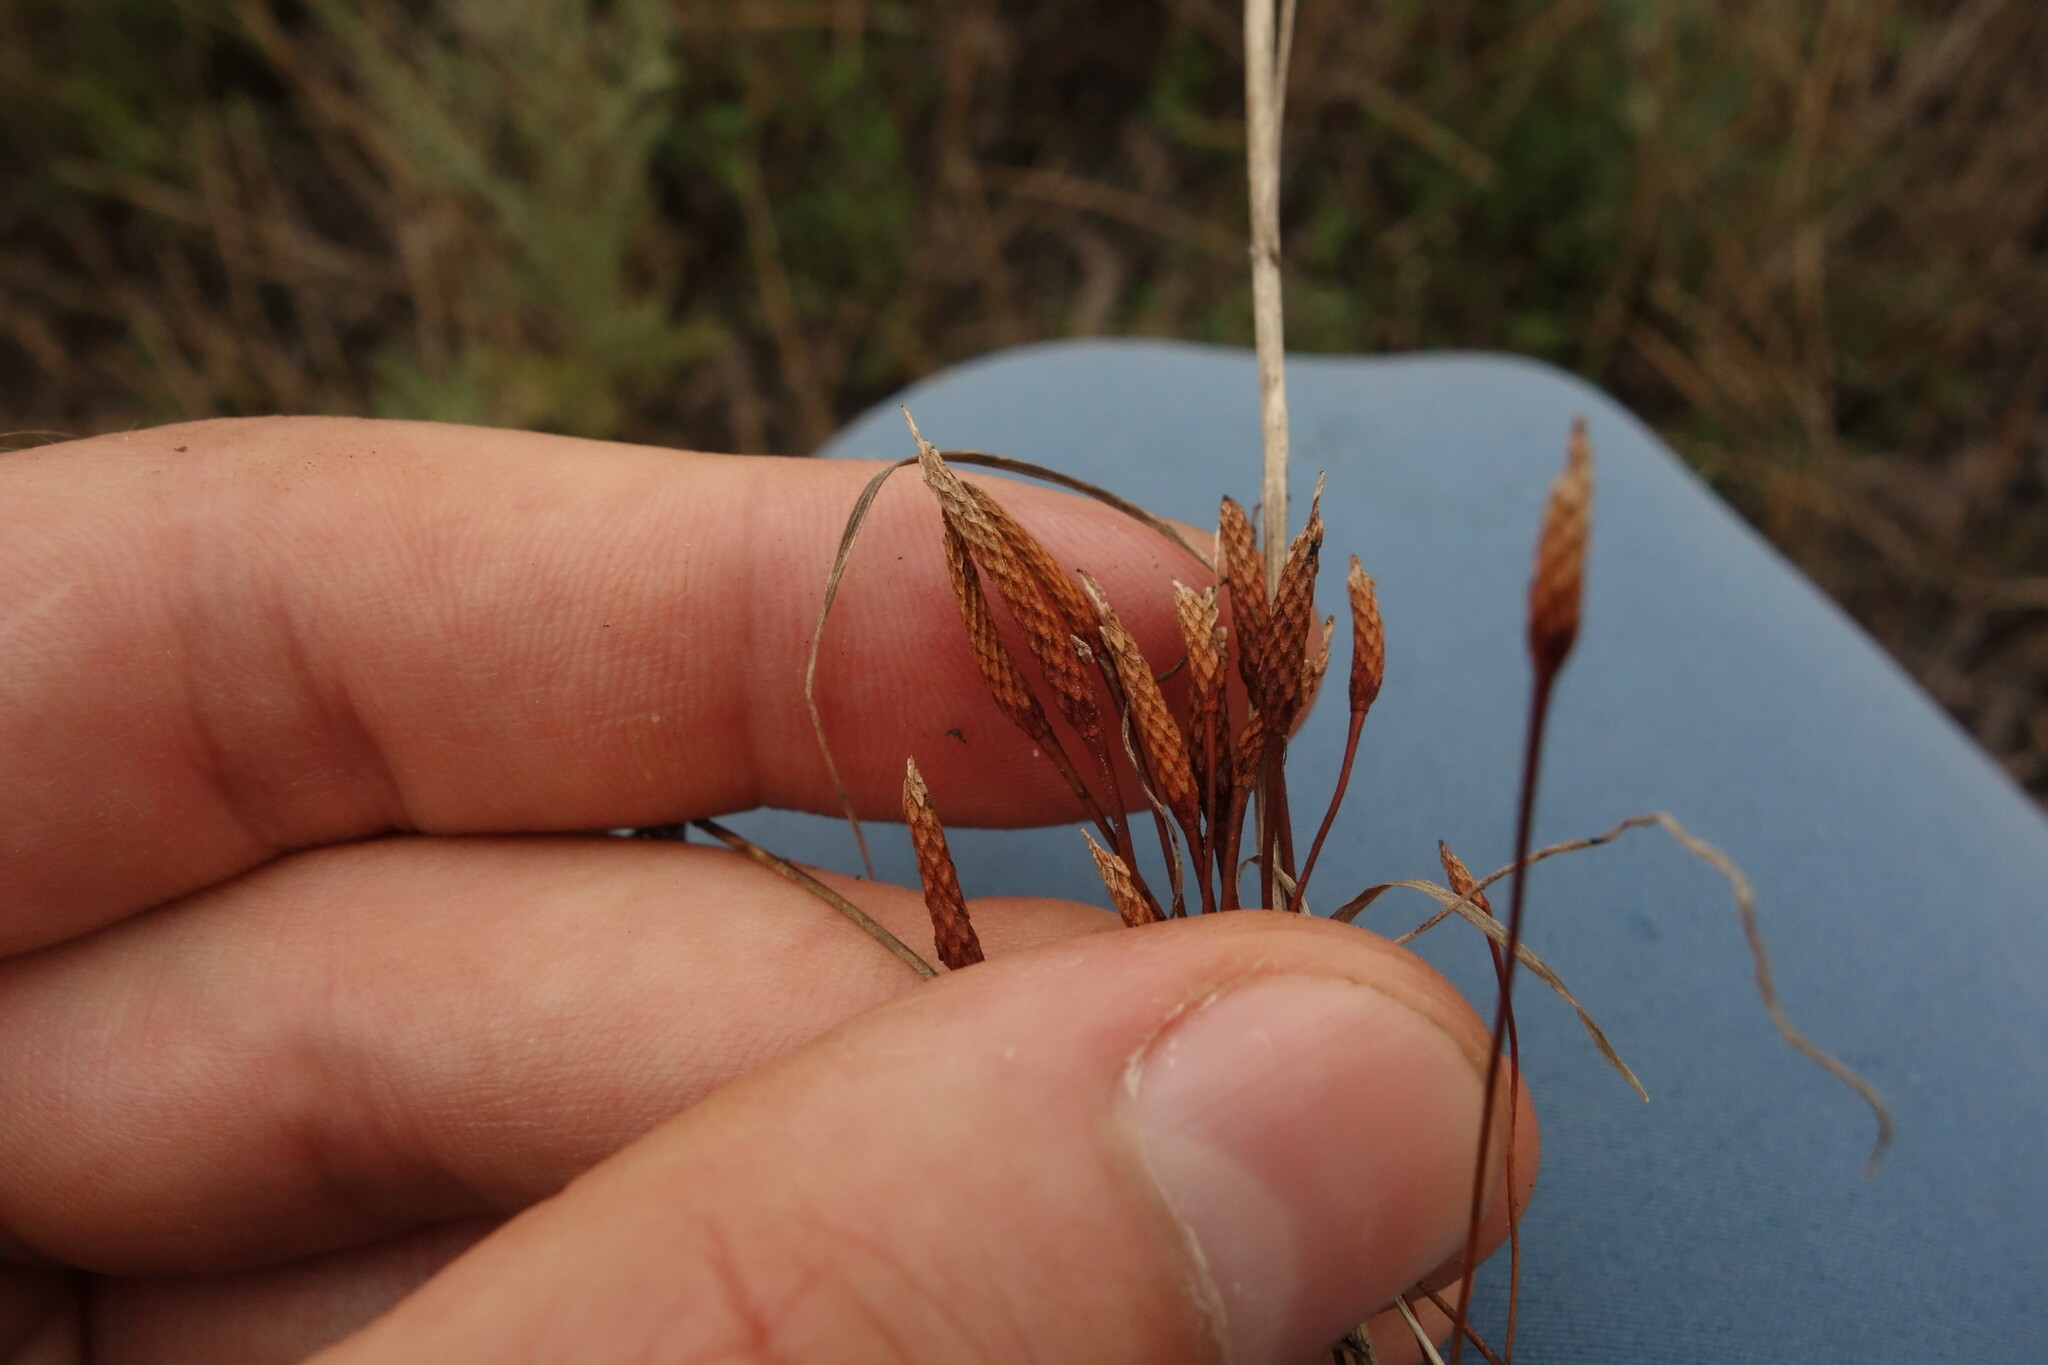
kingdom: Plantae
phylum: Tracheophyta
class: Magnoliopsida
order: Ranunculales
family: Ranunculaceae
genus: Myosurus
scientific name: Myosurus minimus
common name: Mousetail
